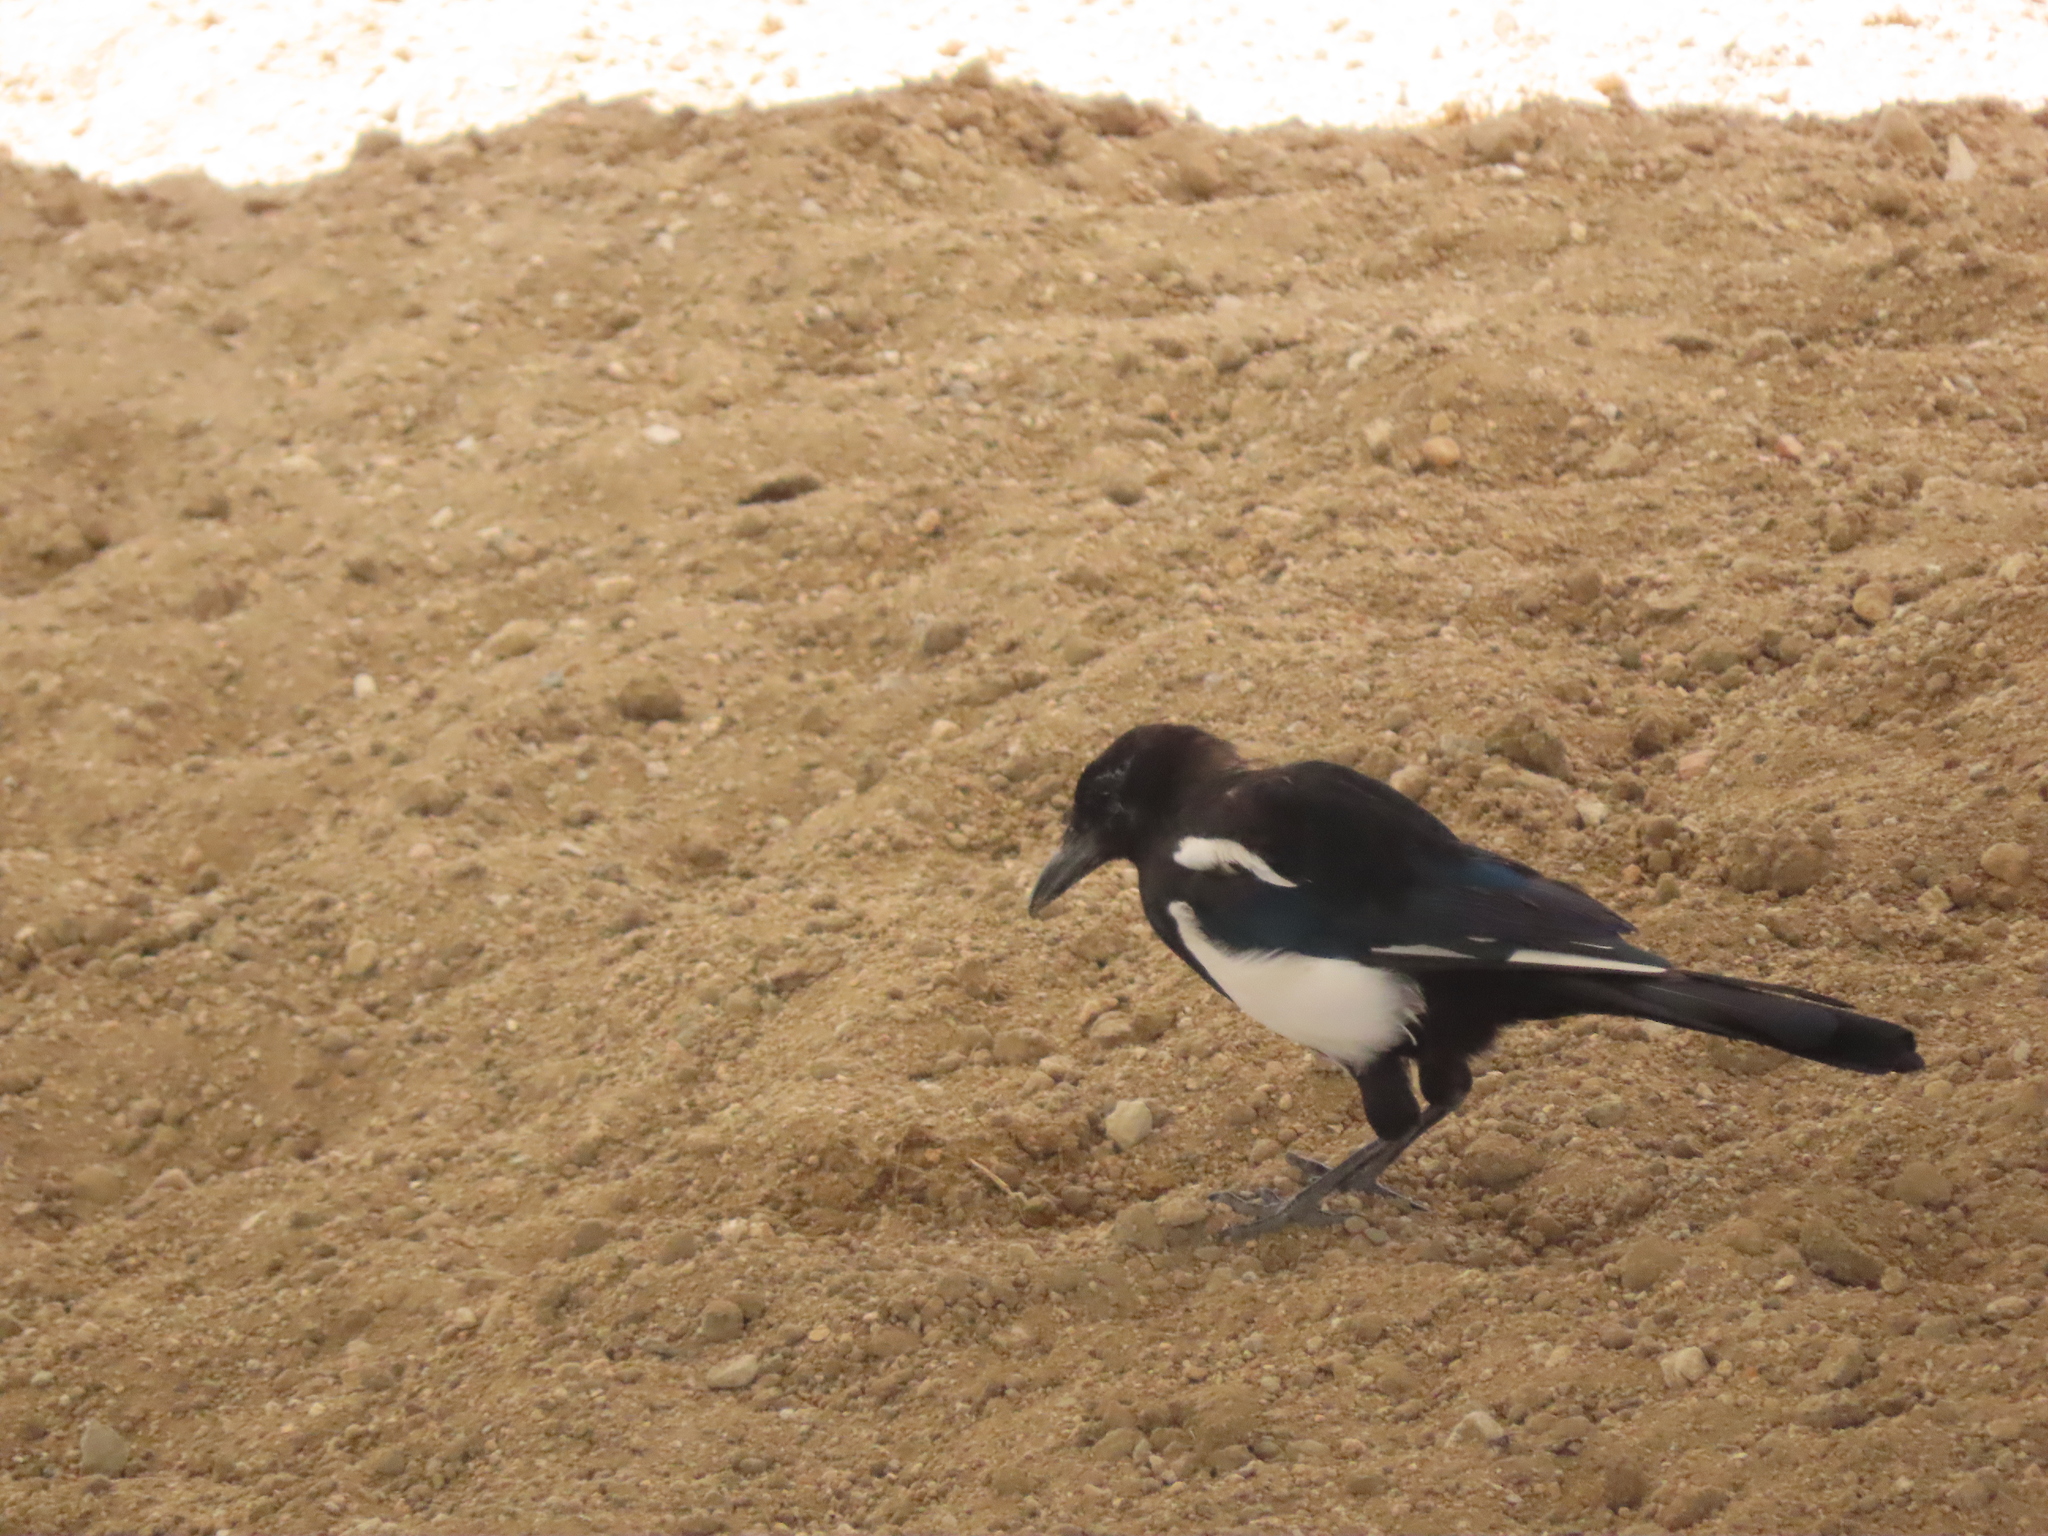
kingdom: Animalia
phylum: Chordata
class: Aves
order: Passeriformes
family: Corvidae
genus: Pica
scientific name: Pica pica
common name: Eurasian magpie
